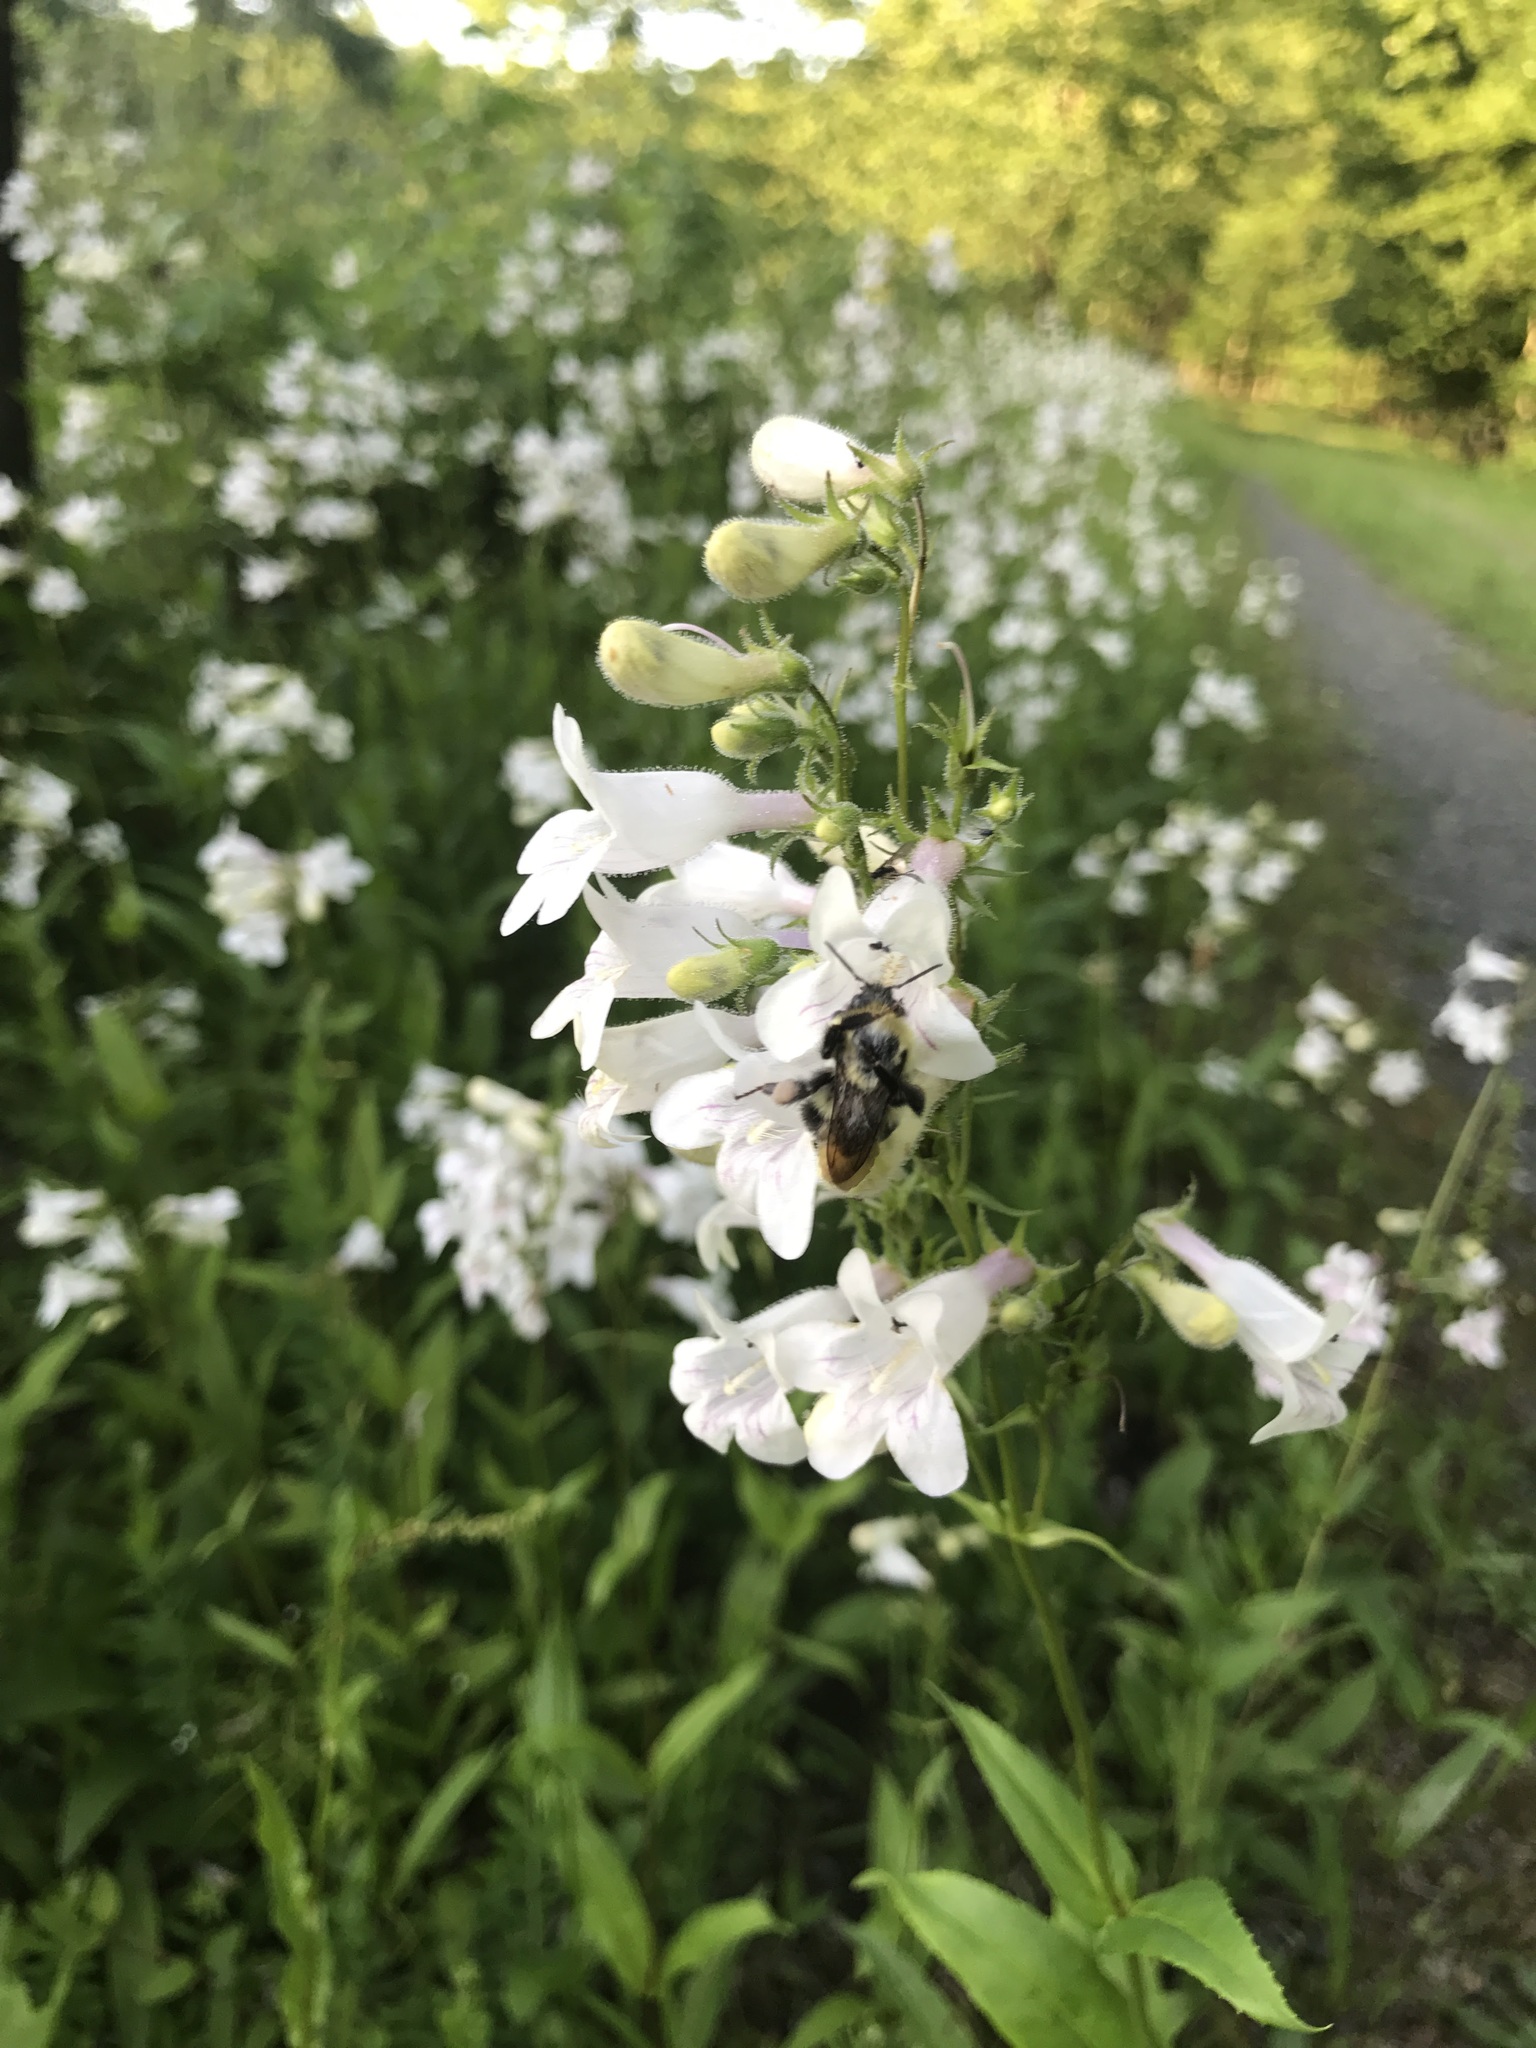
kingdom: Plantae
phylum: Tracheophyta
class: Magnoliopsida
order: Lamiales
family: Plantaginaceae
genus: Penstemon
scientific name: Penstemon digitalis
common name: Foxglove beardtongue
